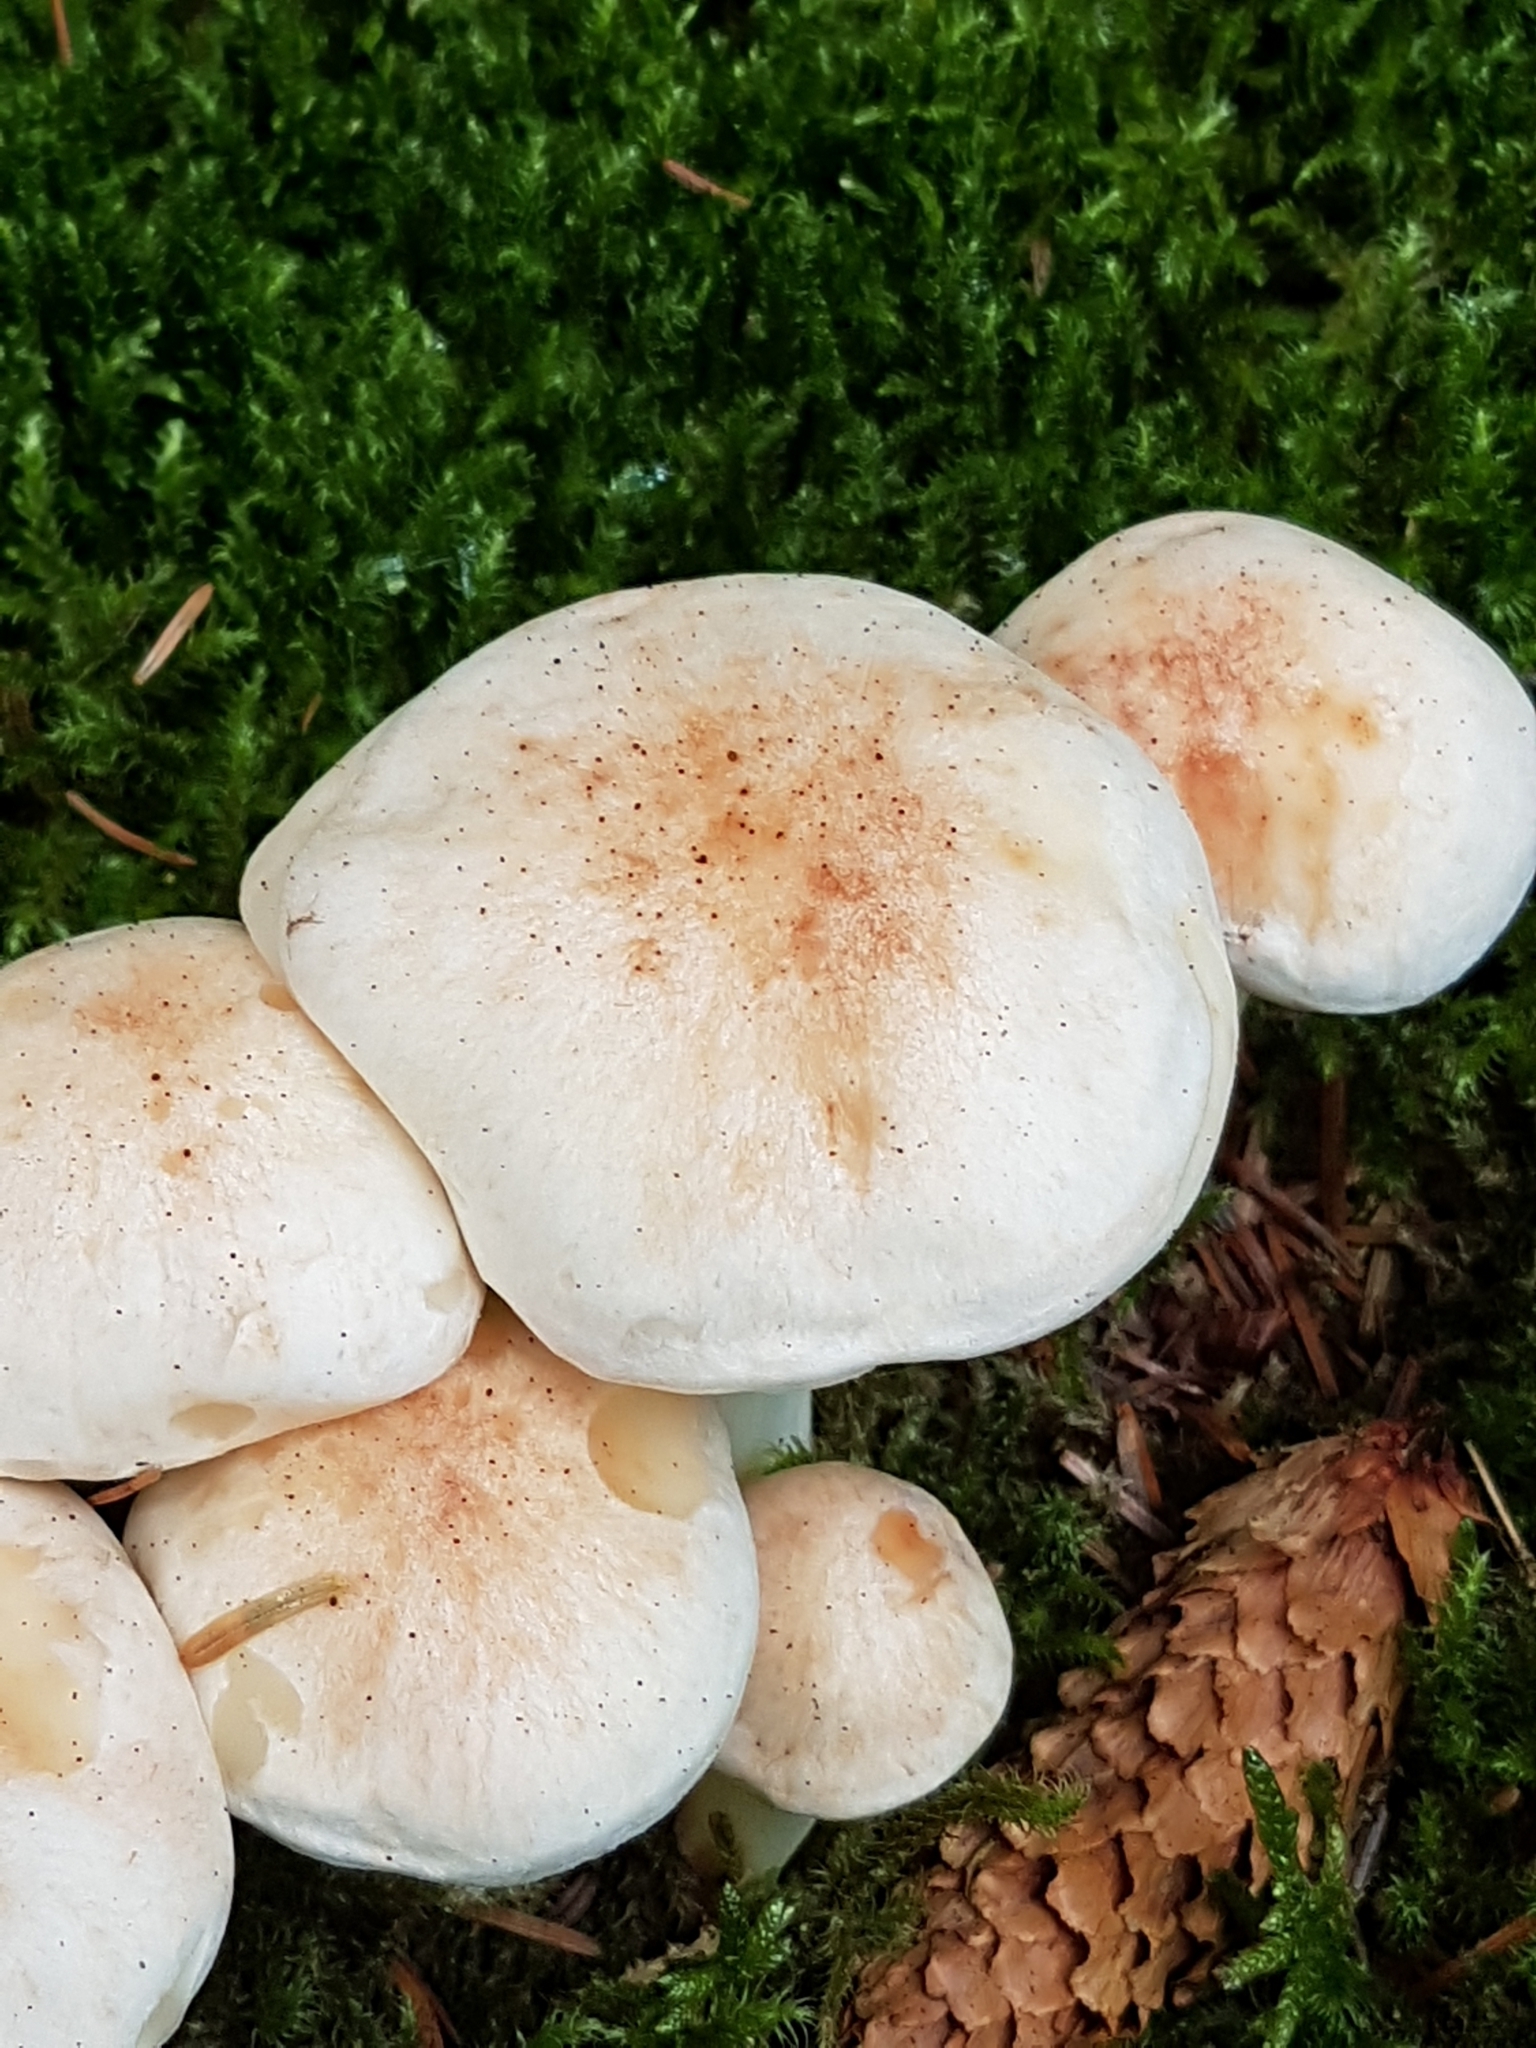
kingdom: Fungi
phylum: Basidiomycota
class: Agaricomycetes
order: Agaricales
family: Omphalotaceae
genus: Rhodocollybia
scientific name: Rhodocollybia maculata
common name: Spotted tough-shank
